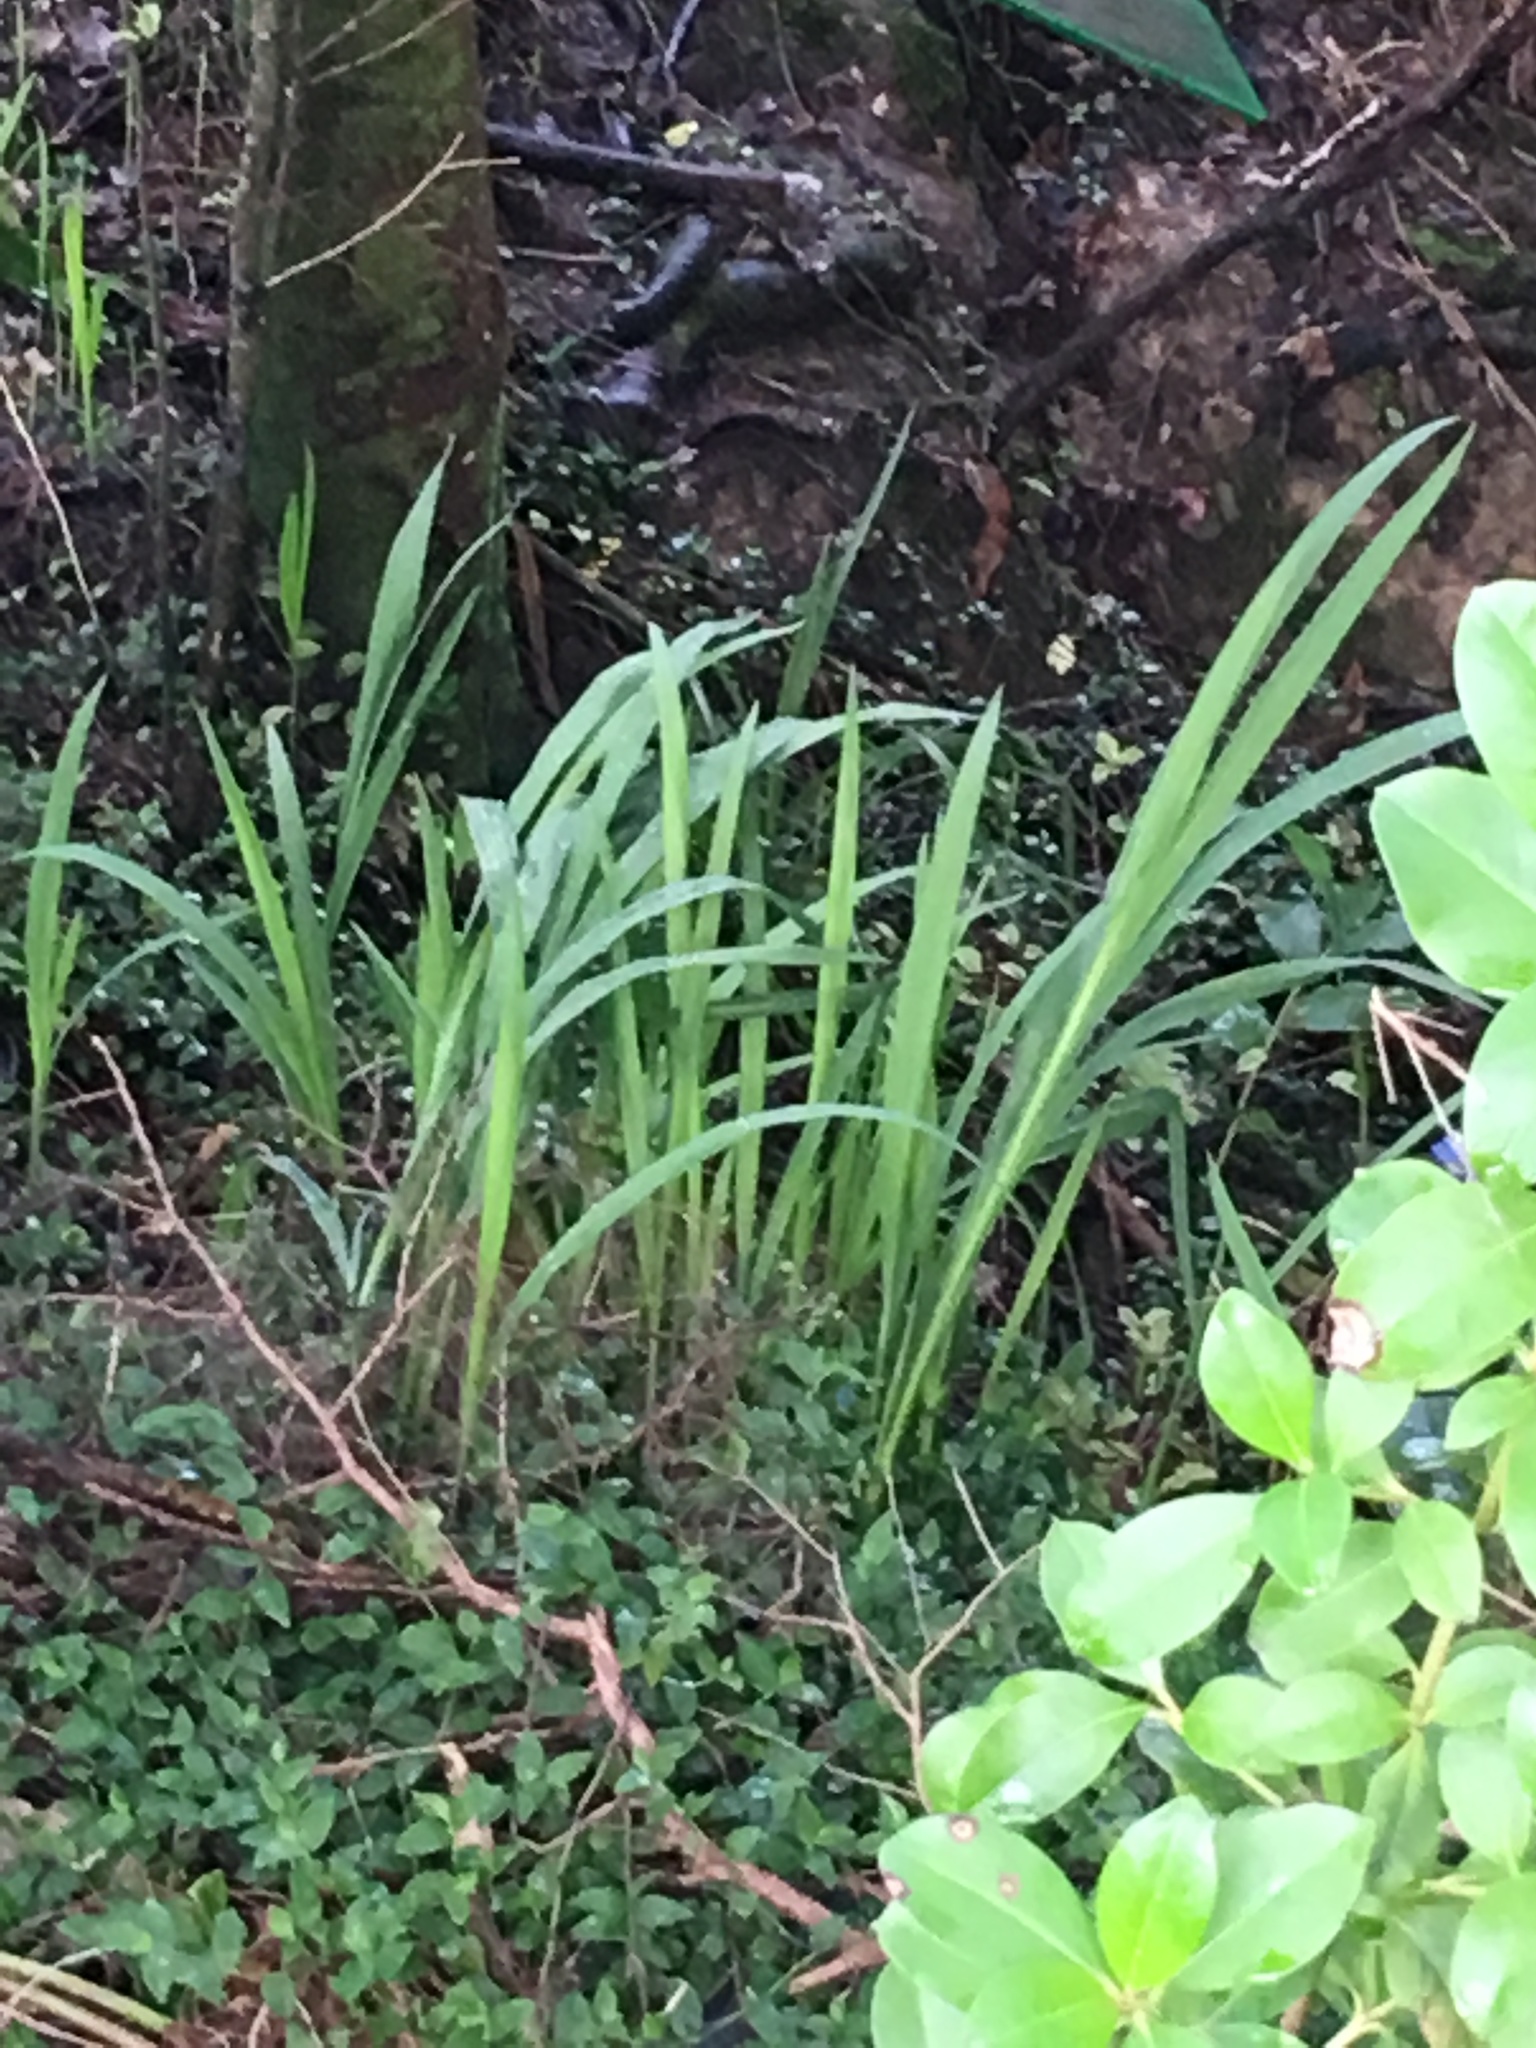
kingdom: Plantae
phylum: Tracheophyta
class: Liliopsida
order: Asparagales
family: Iridaceae
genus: Crocosmia
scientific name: Crocosmia crocosmiiflora
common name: Montbretia
